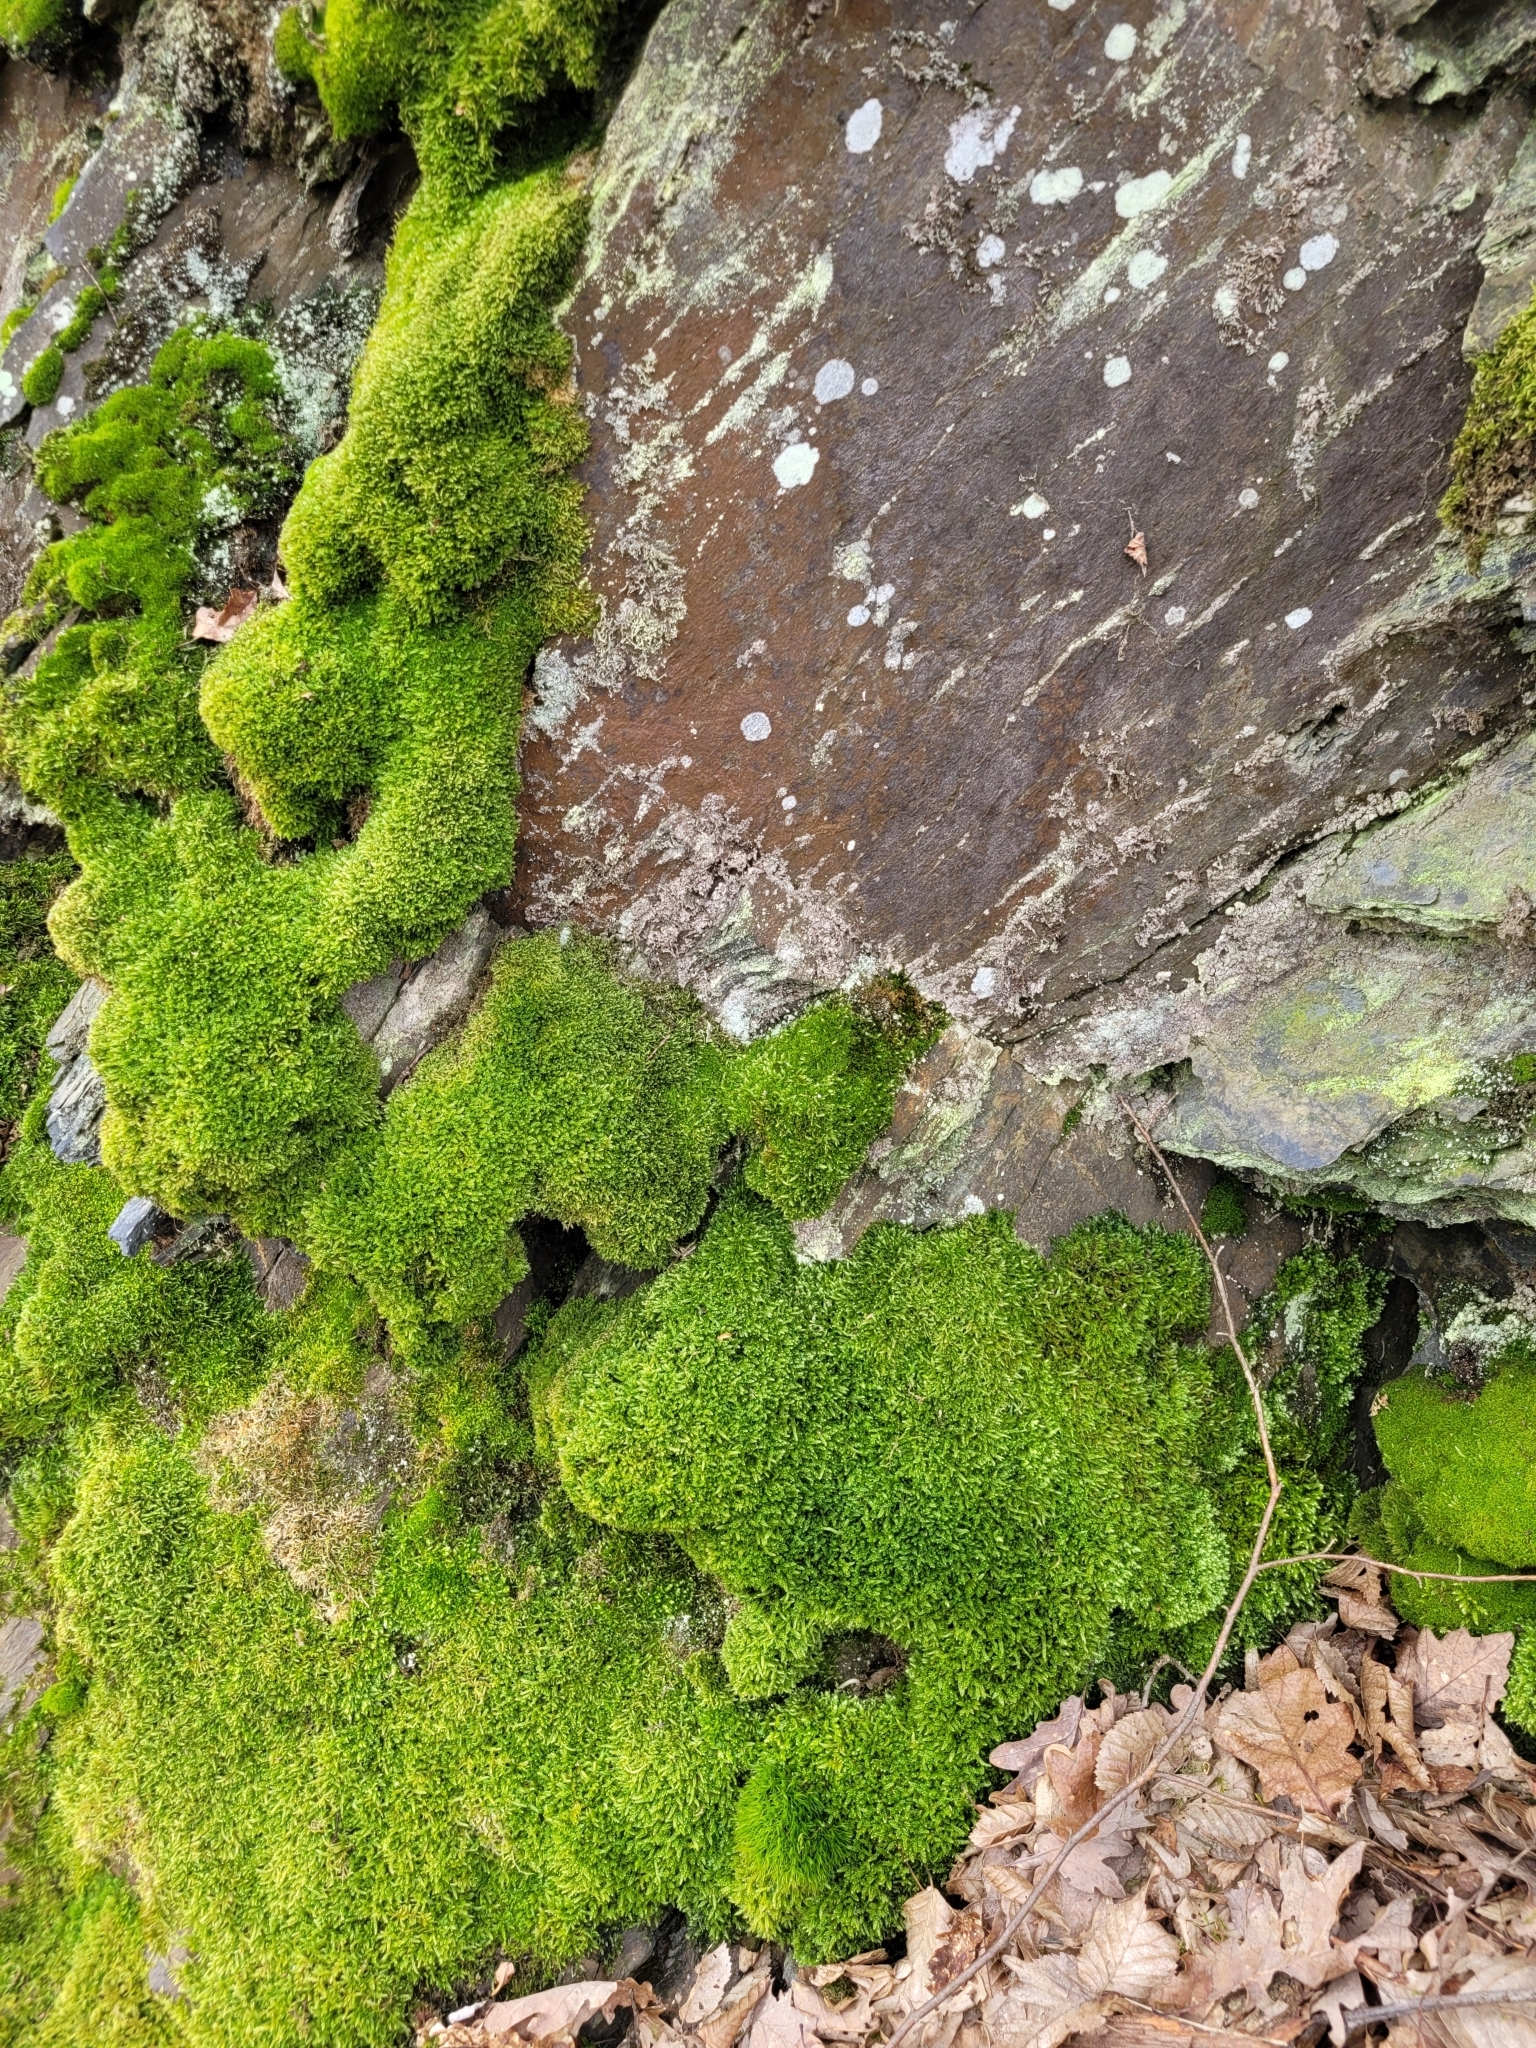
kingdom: Plantae
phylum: Bryophyta
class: Bryopsida
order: Hypnales
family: Hypnaceae
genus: Hypnum
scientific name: Hypnum cupressiforme
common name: Cypress-leaved plait-moss
